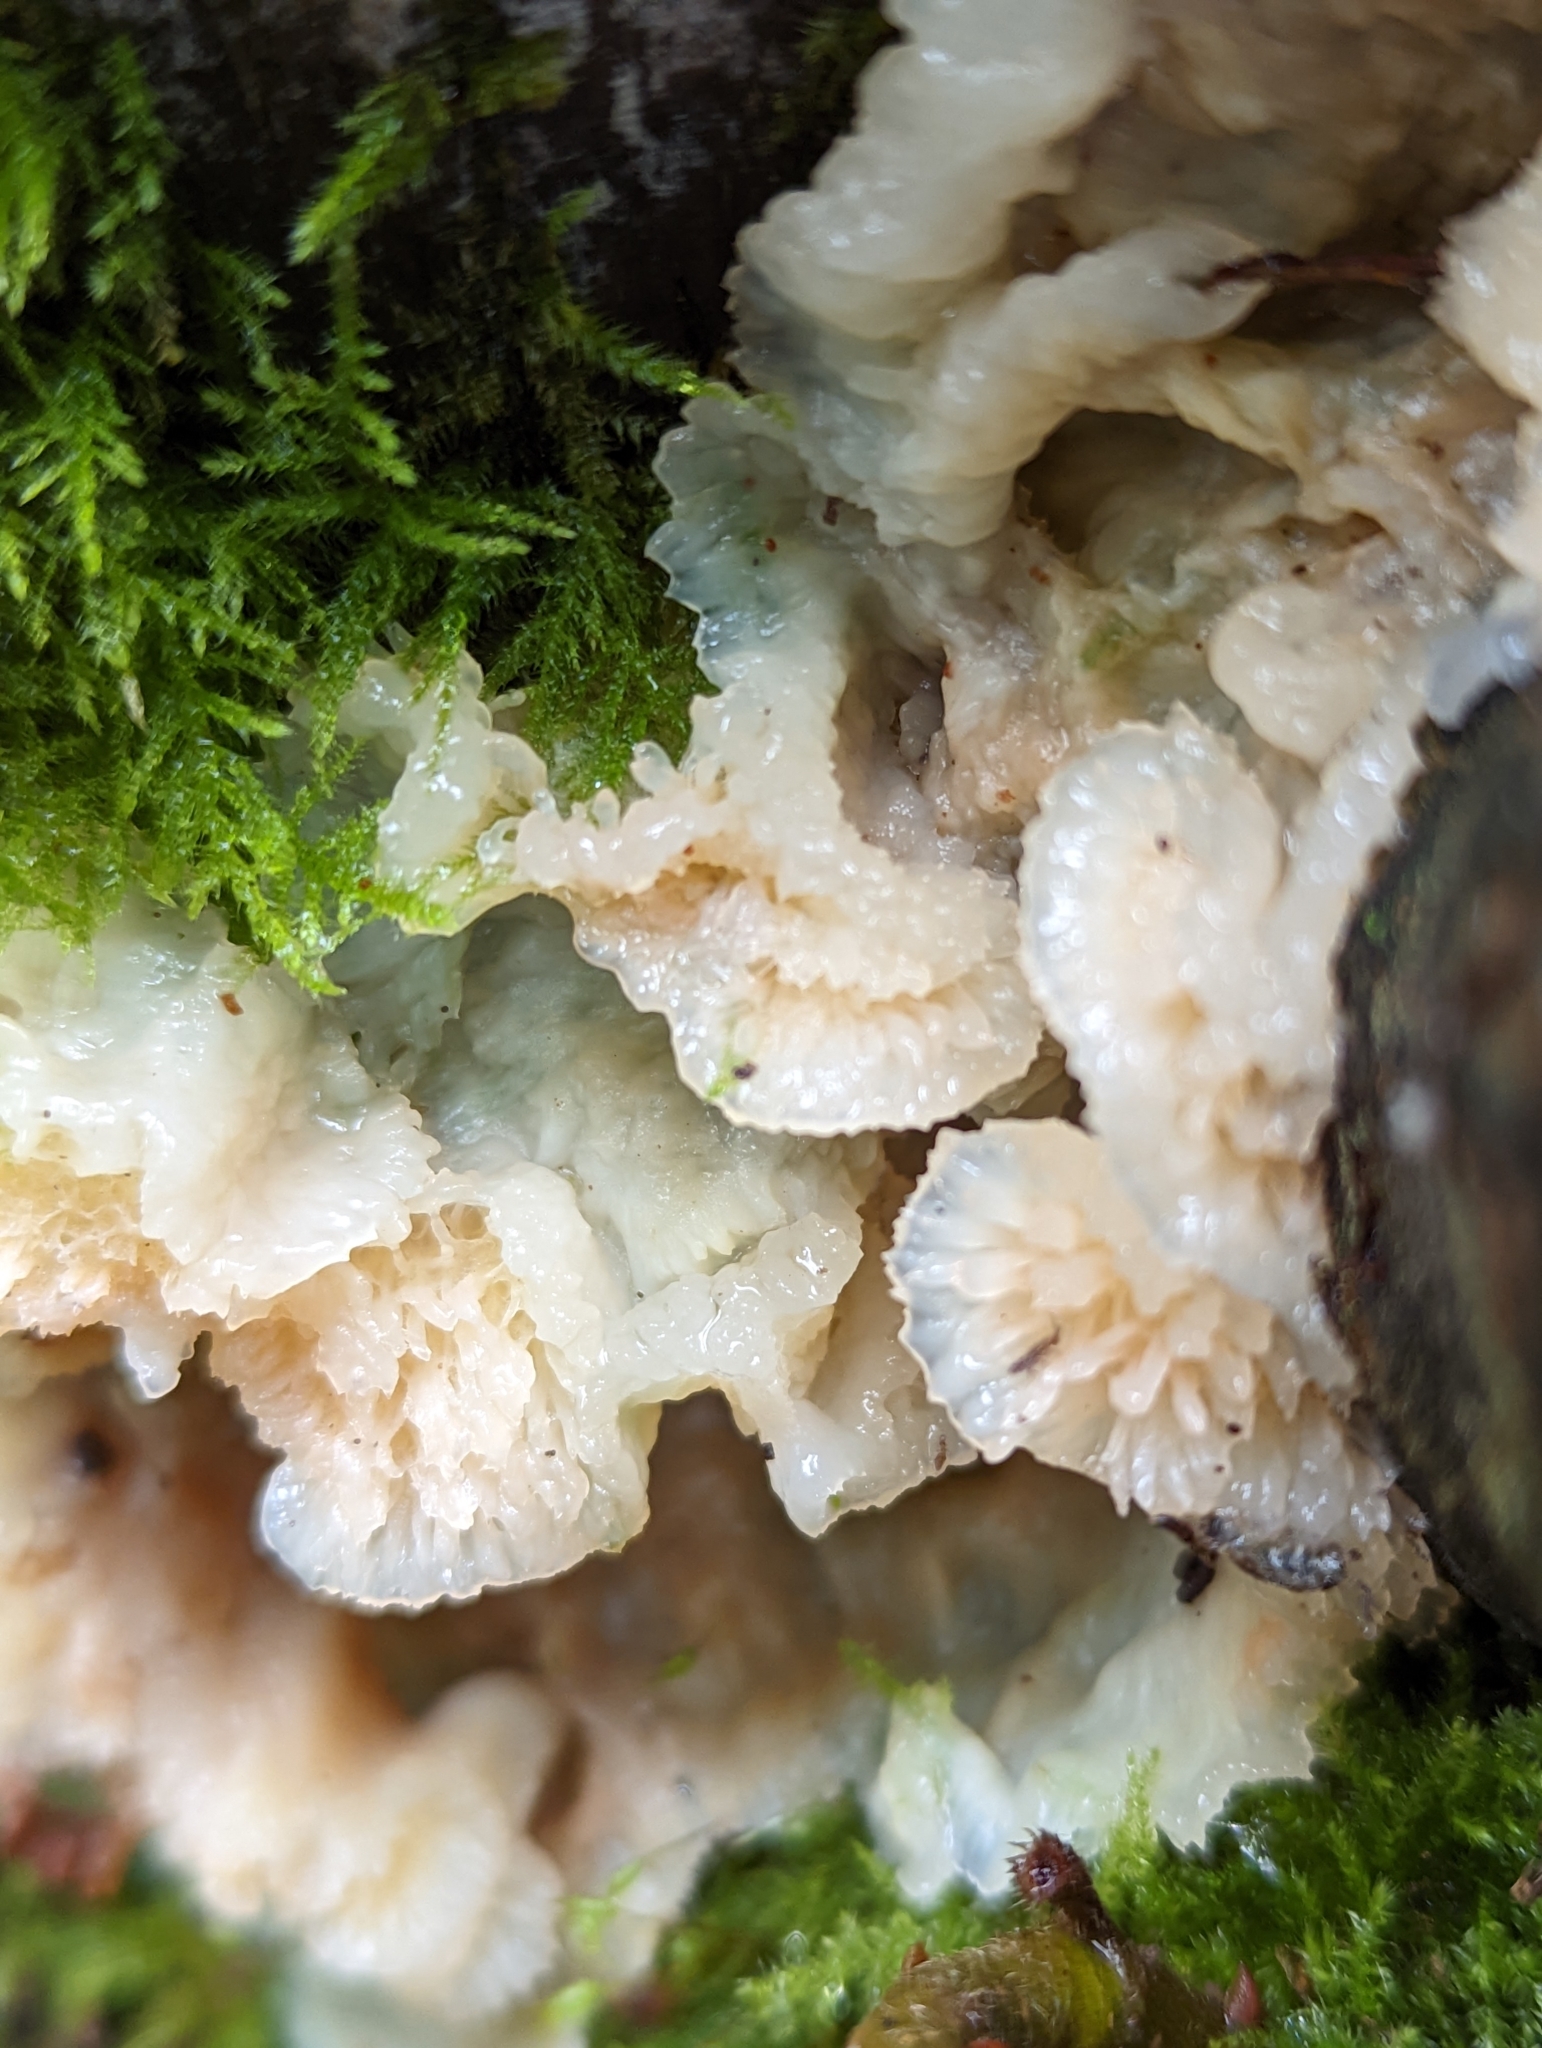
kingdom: Fungi
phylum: Basidiomycota
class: Agaricomycetes
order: Polyporales
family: Meruliaceae
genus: Phlebia
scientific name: Phlebia tremellosa
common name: Jelly rot
